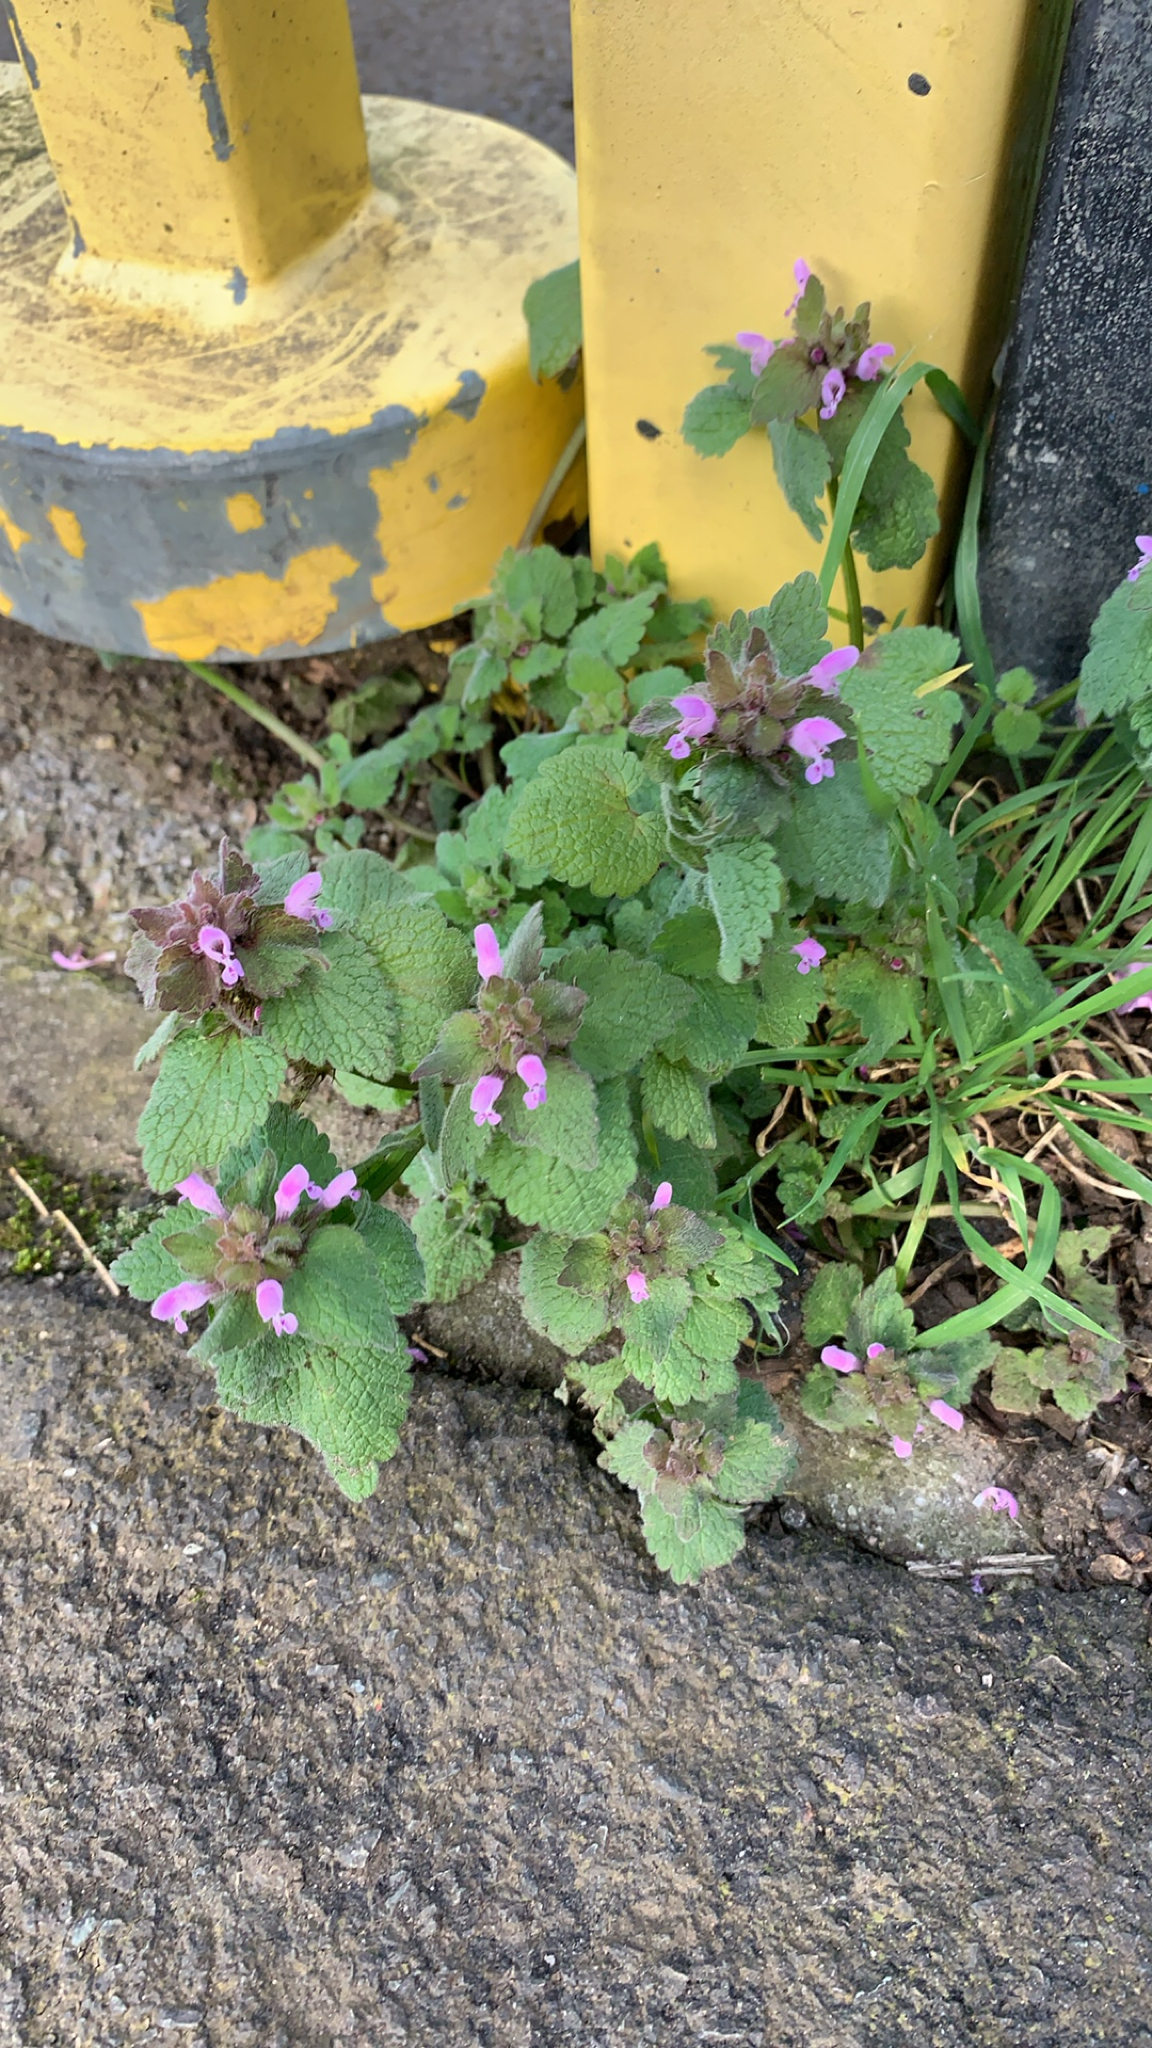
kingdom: Plantae
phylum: Tracheophyta
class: Magnoliopsida
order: Lamiales
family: Lamiaceae
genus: Lamium
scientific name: Lamium purpureum
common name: Red dead-nettle
